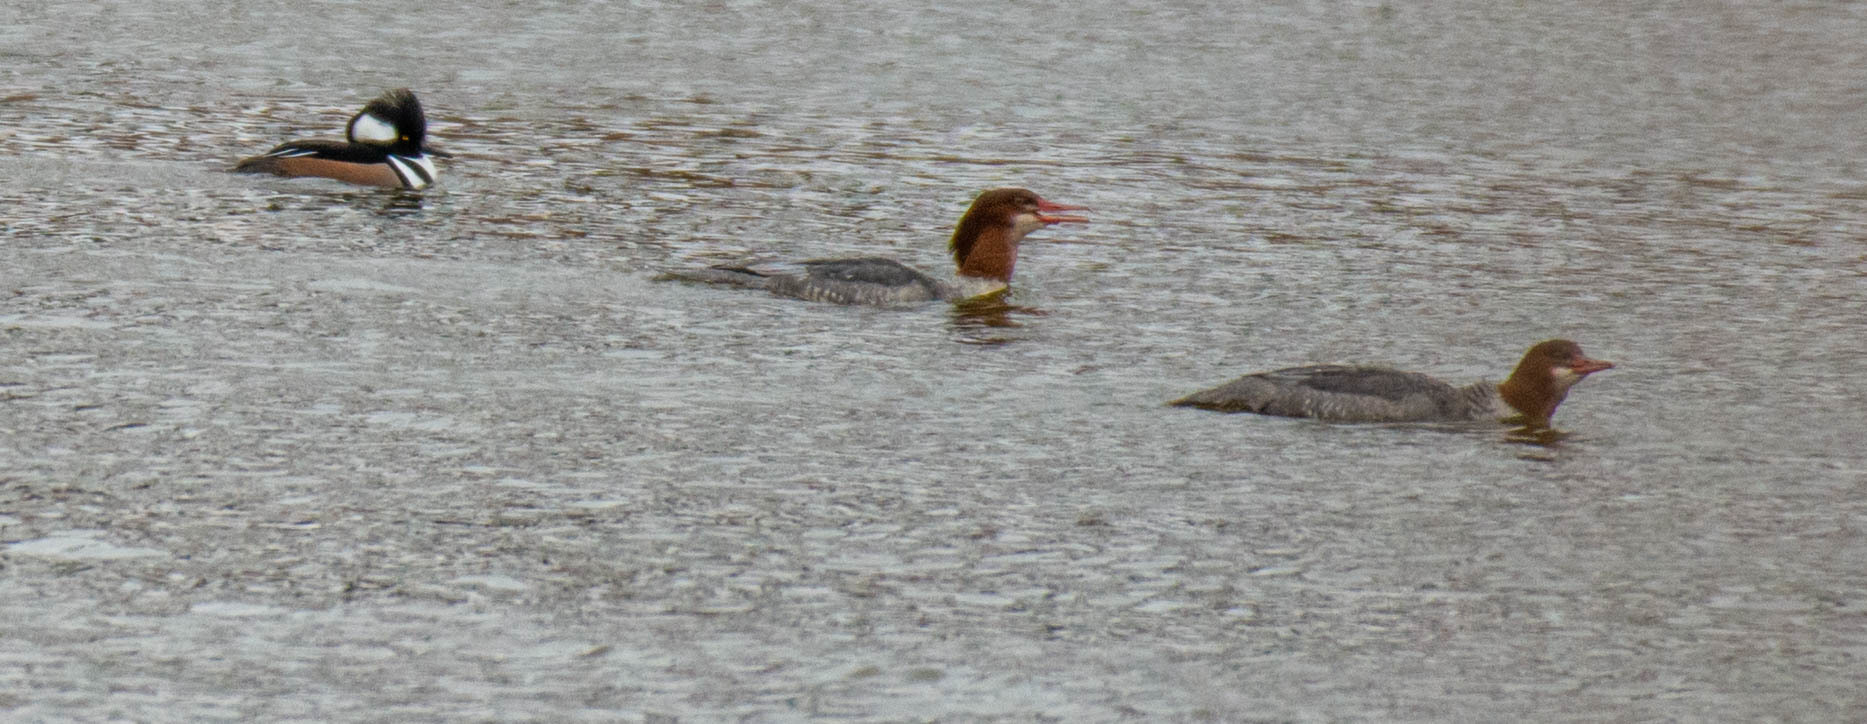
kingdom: Animalia
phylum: Chordata
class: Aves
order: Anseriformes
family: Anatidae
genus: Mergus
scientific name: Mergus merganser
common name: Common merganser
